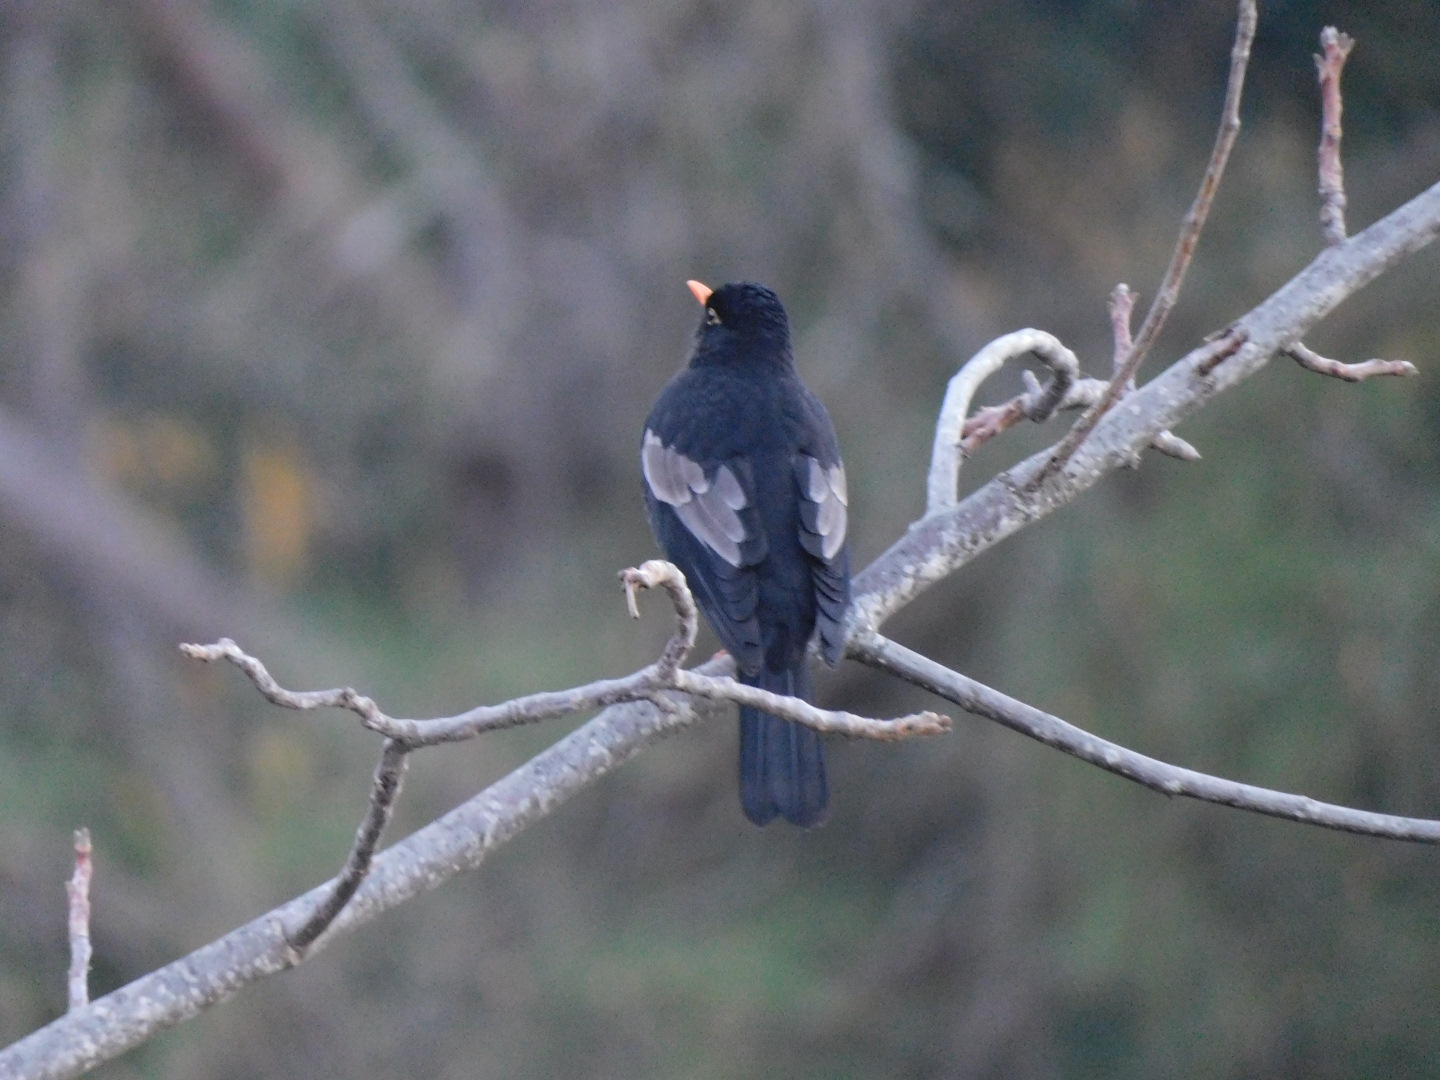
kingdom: Animalia
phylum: Chordata
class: Aves
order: Passeriformes
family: Turdidae
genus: Turdus
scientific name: Turdus boulboul
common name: Grey-winged blackbird
